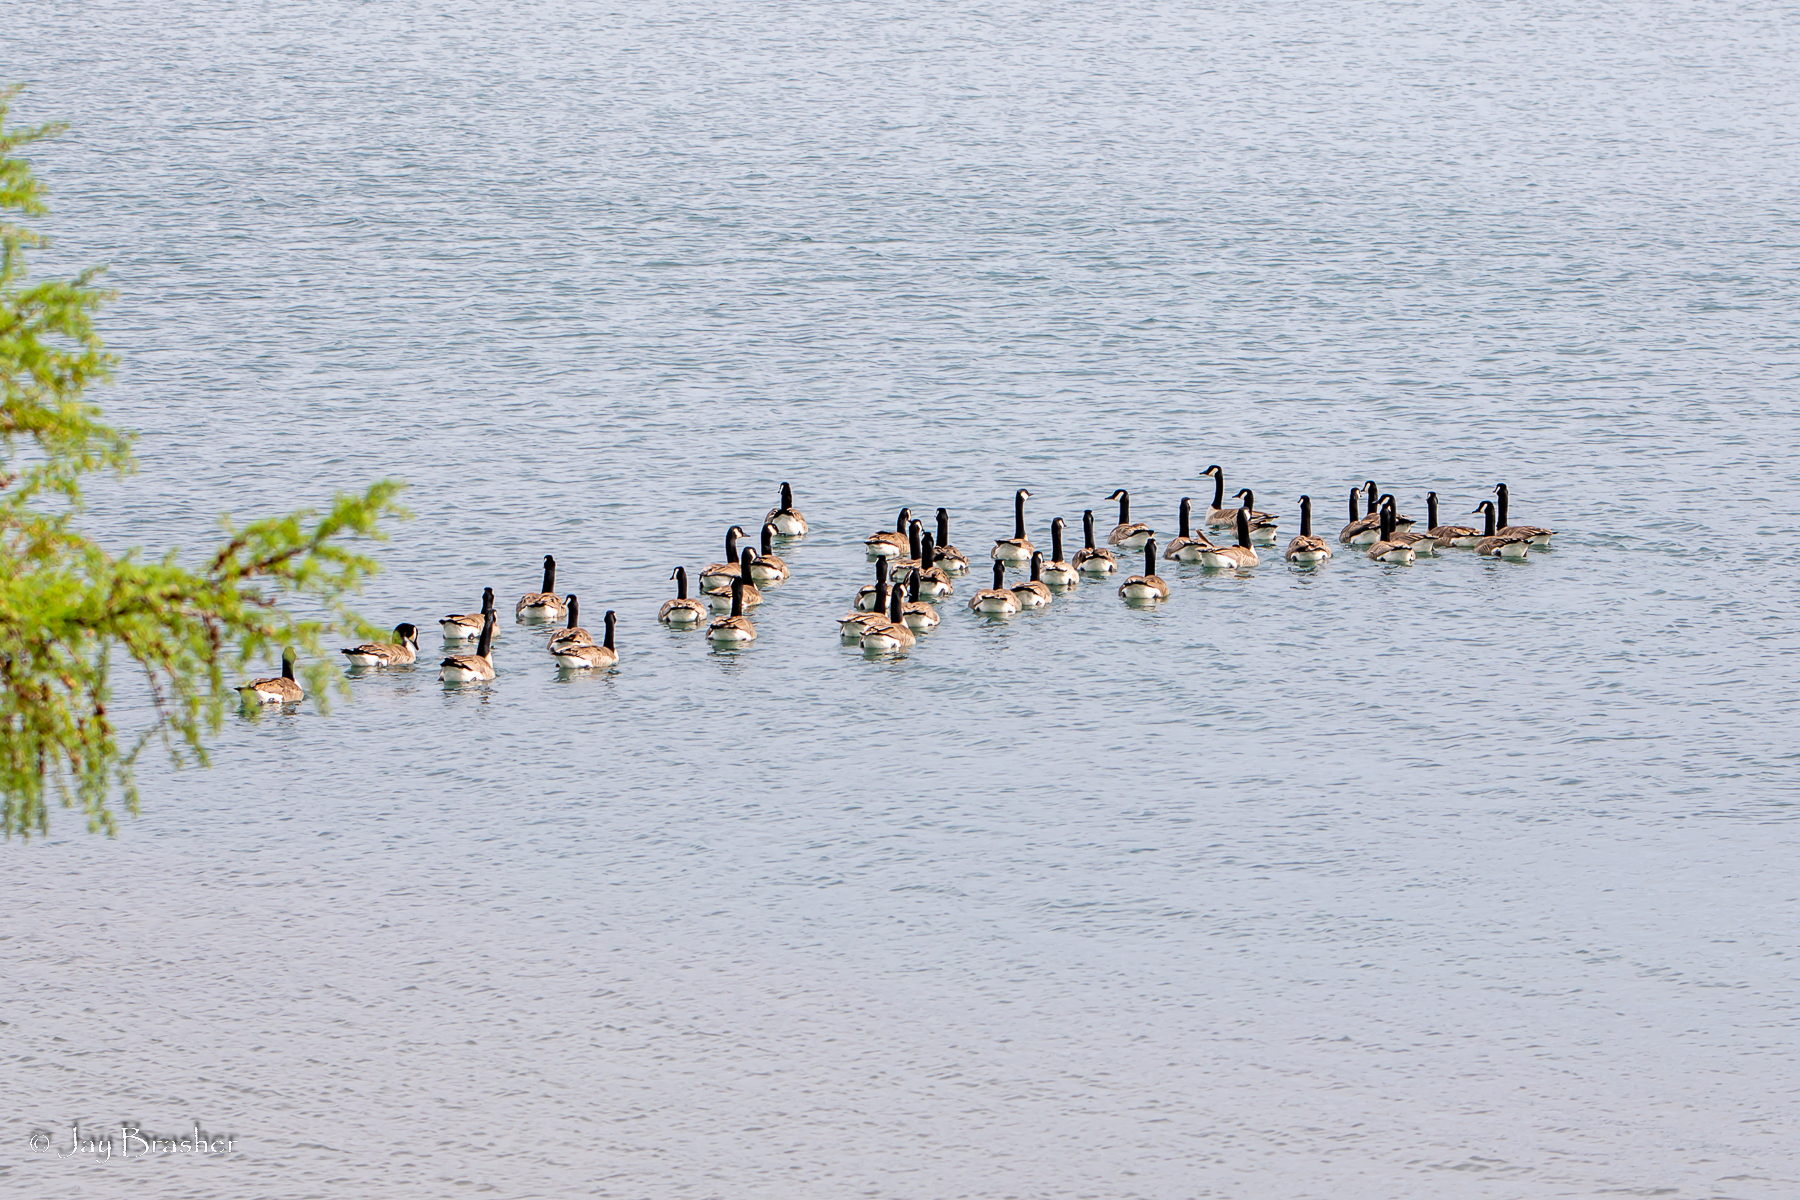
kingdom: Animalia
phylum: Chordata
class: Aves
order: Anseriformes
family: Anatidae
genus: Branta
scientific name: Branta canadensis
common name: Canada goose
